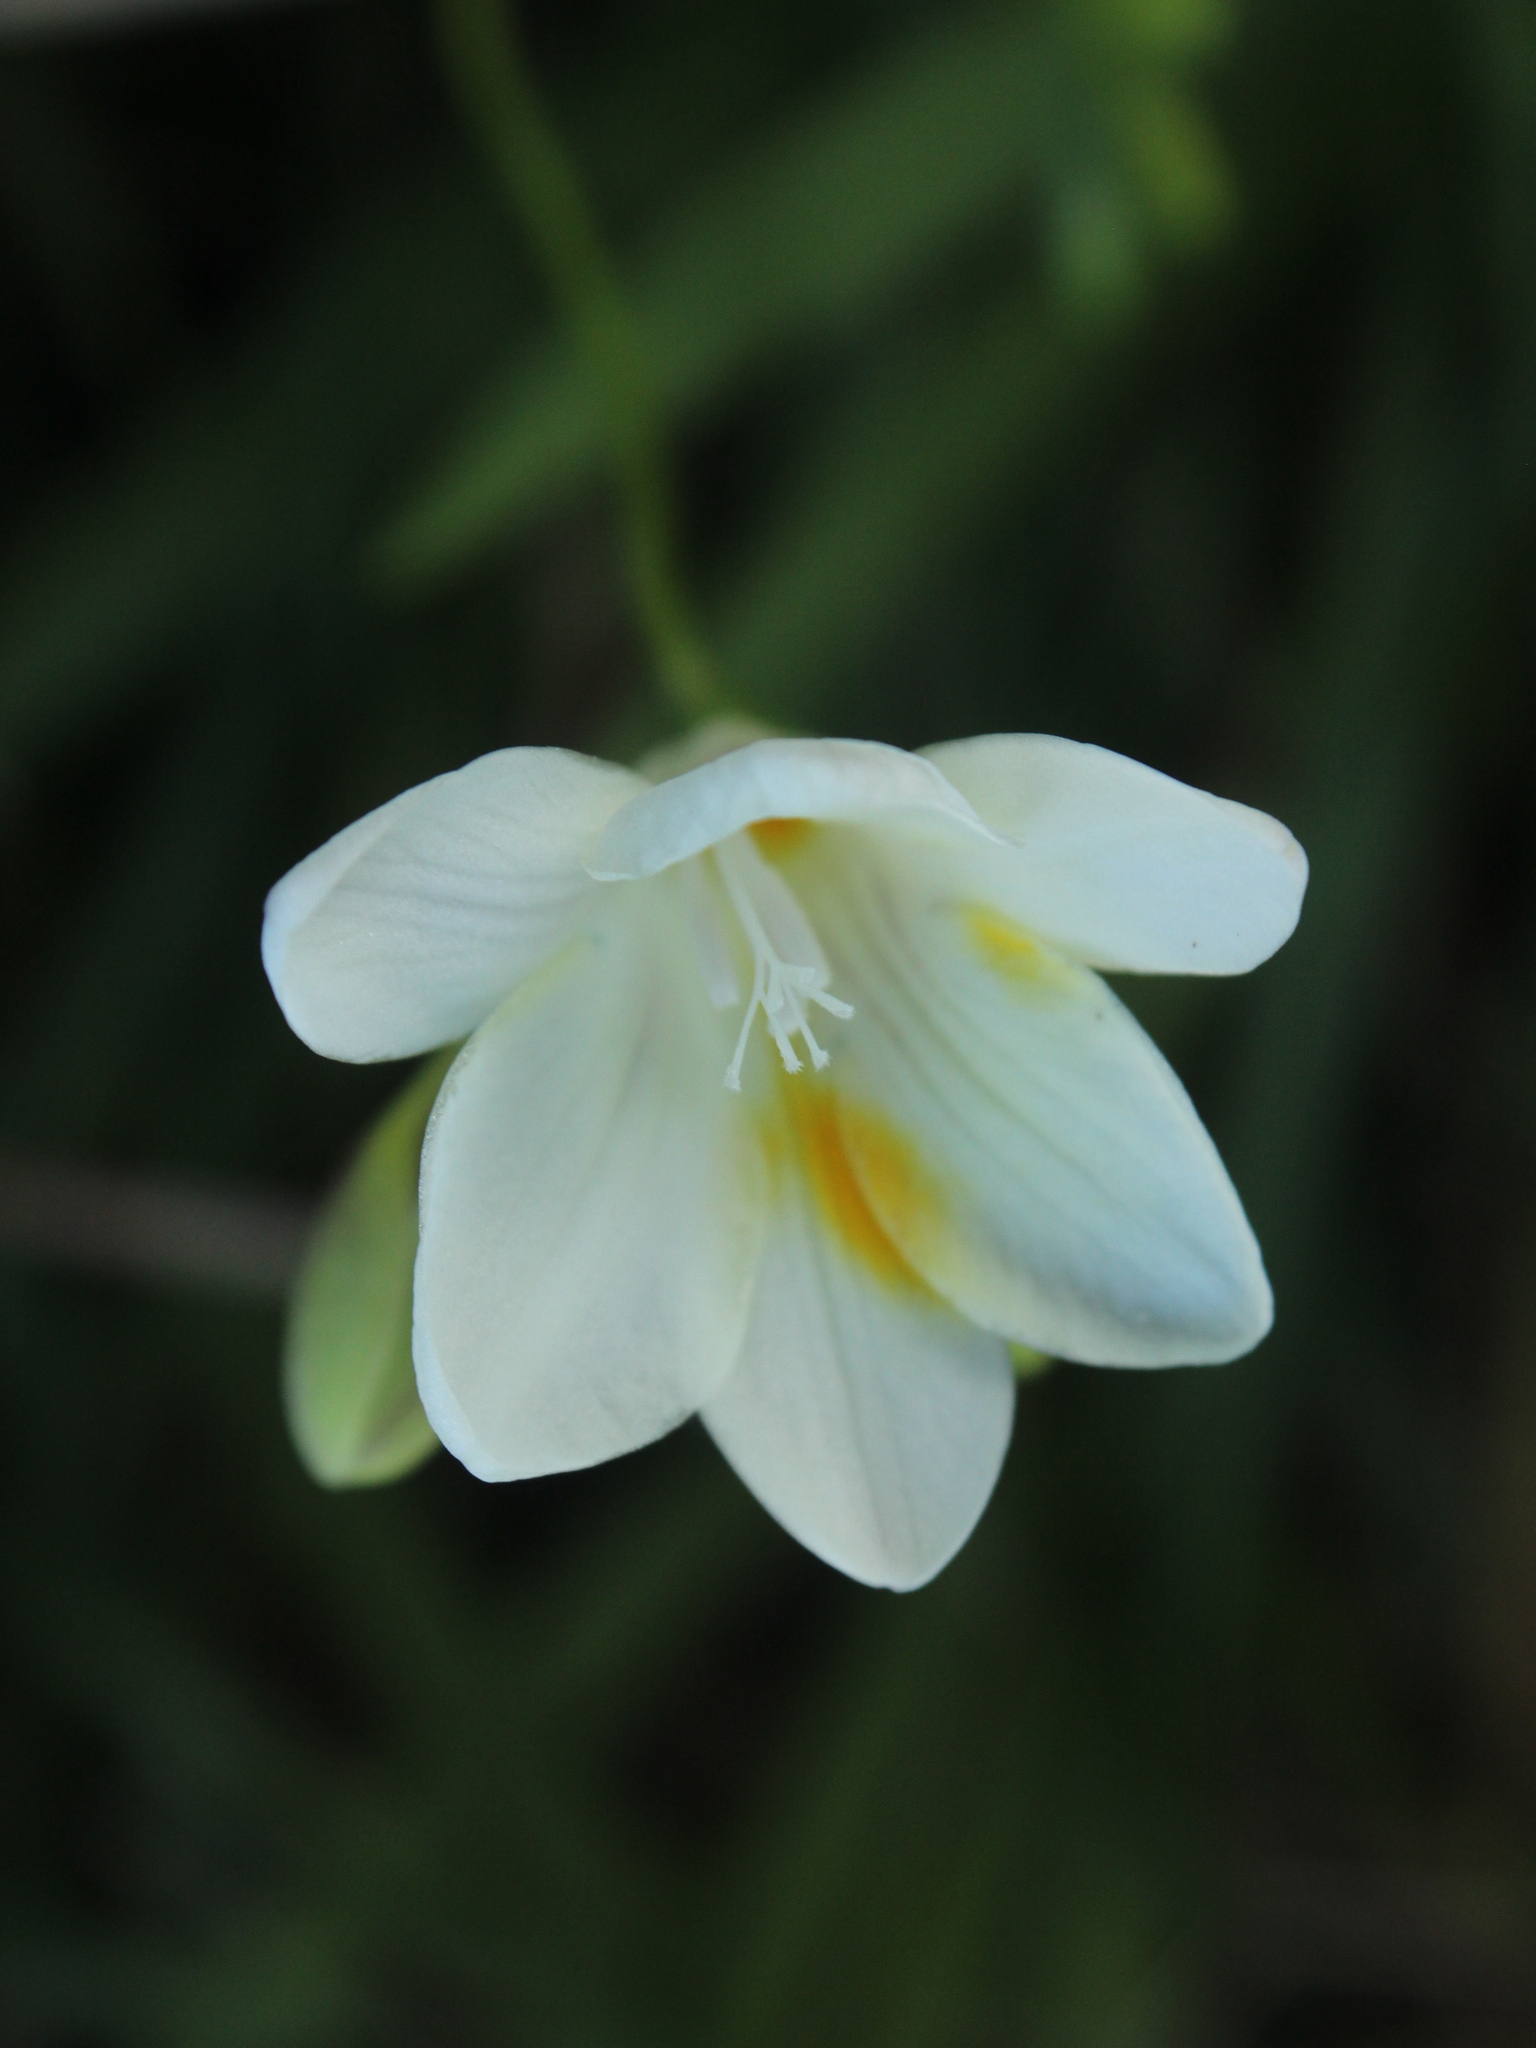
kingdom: Plantae
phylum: Tracheophyta
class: Liliopsida
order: Asparagales
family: Iridaceae
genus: Freesia
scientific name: Freesia leichtlinii
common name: Freesia
